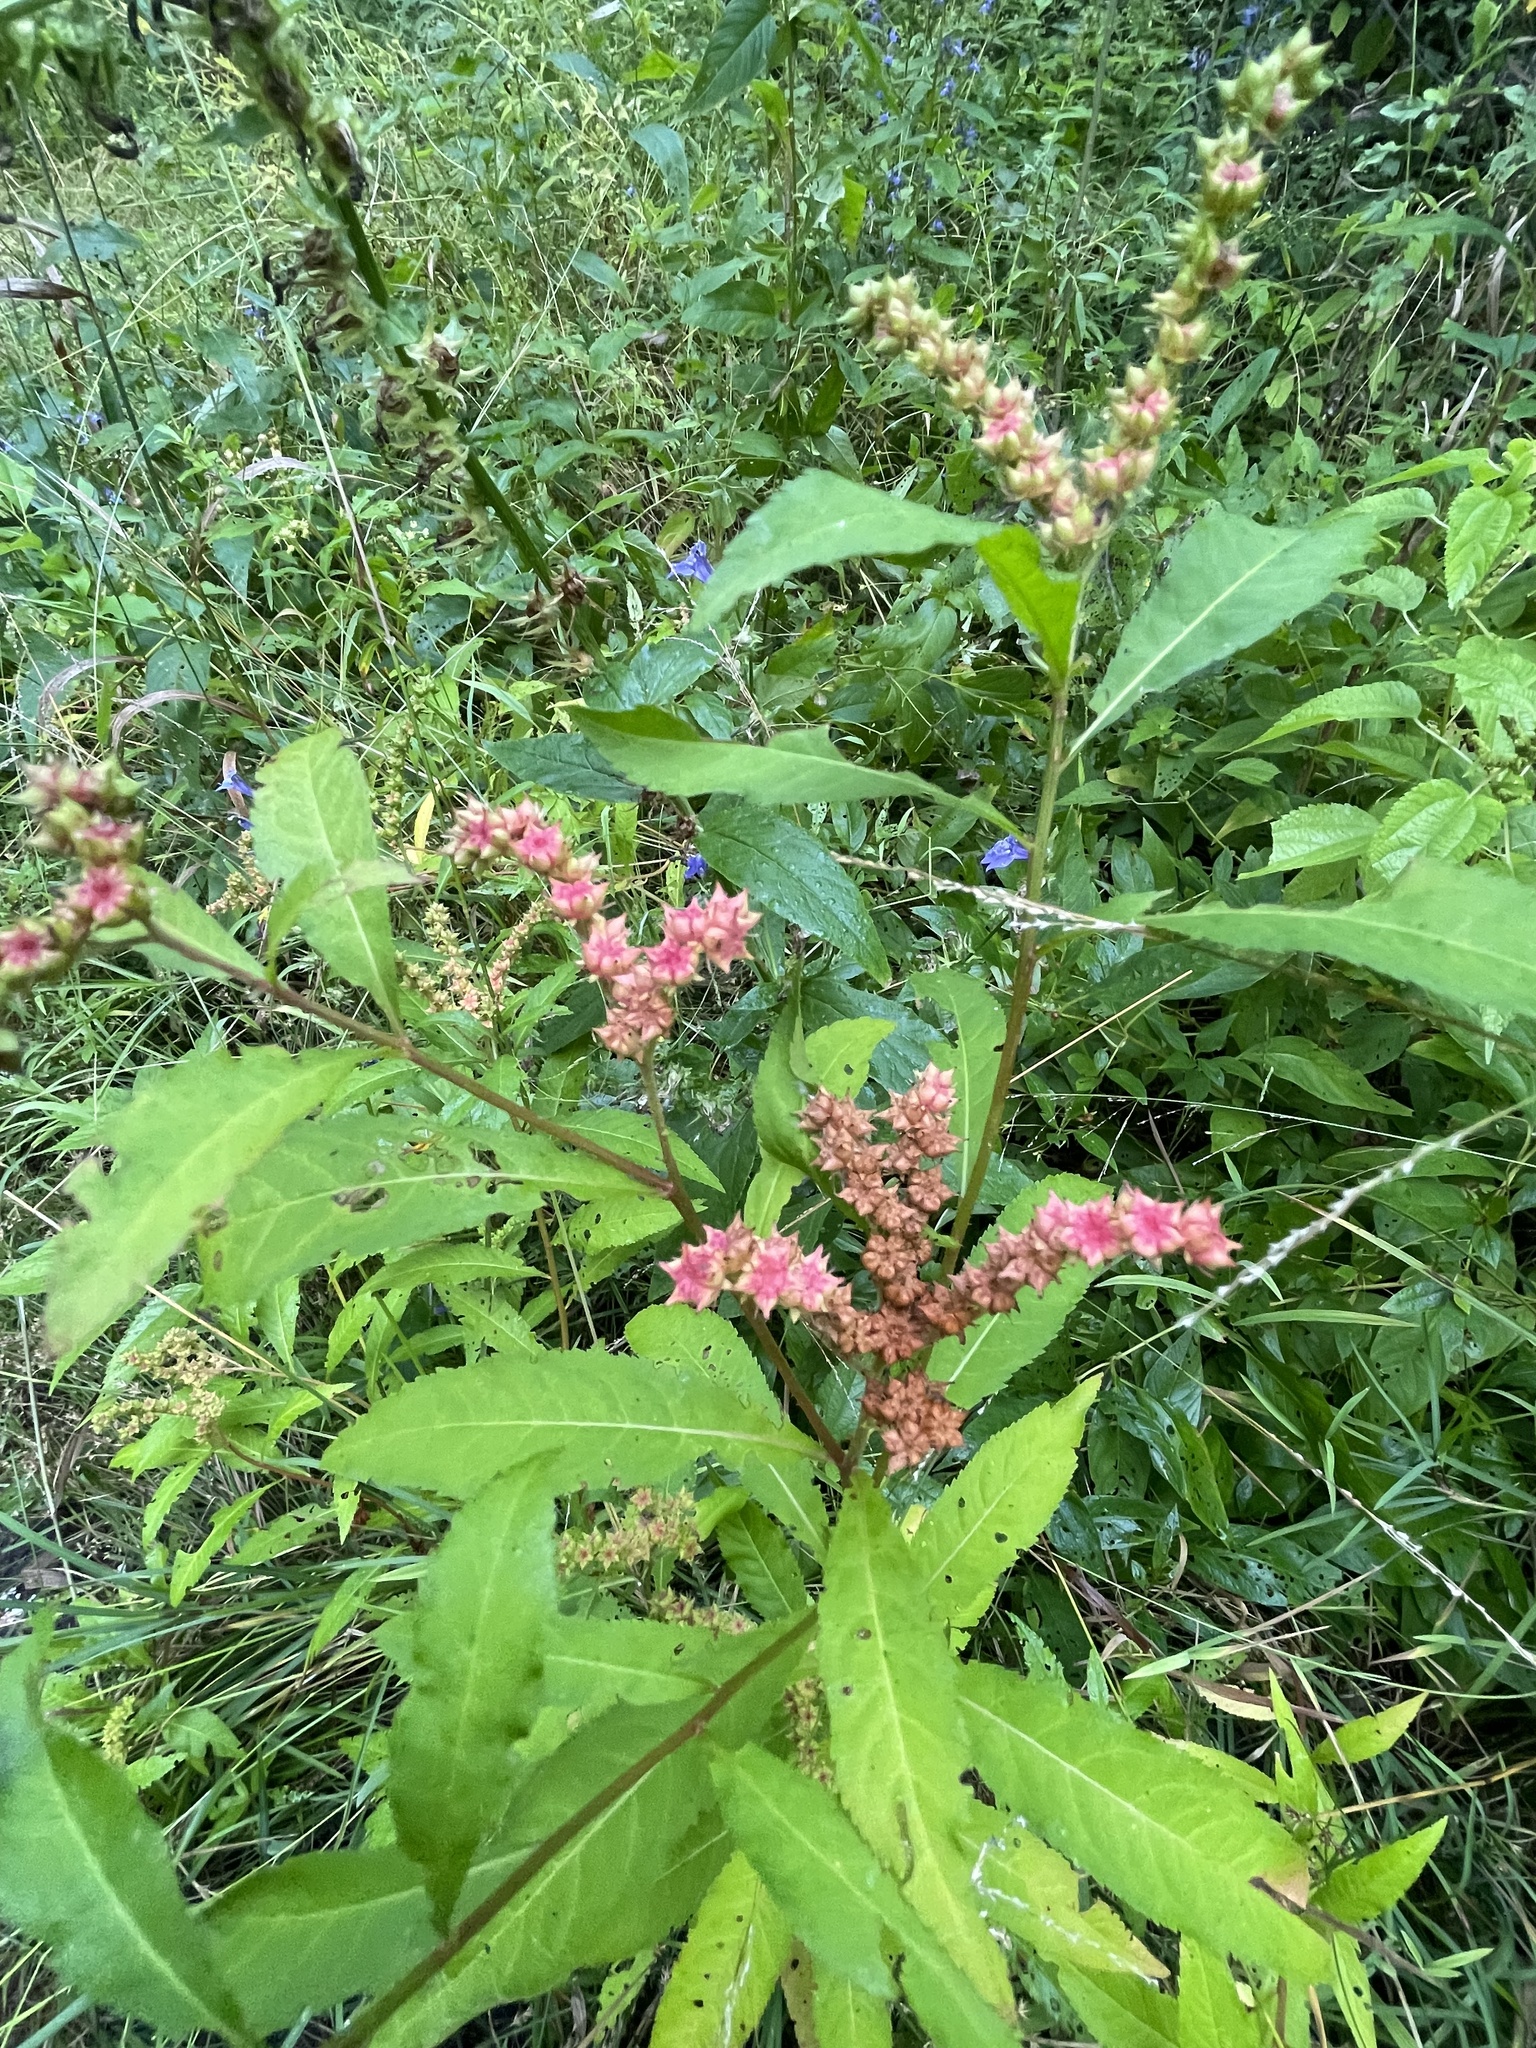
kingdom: Plantae
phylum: Tracheophyta
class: Magnoliopsida
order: Saxifragales
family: Penthoraceae
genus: Penthorum
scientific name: Penthorum sedoides
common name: Ditch stonecrop
